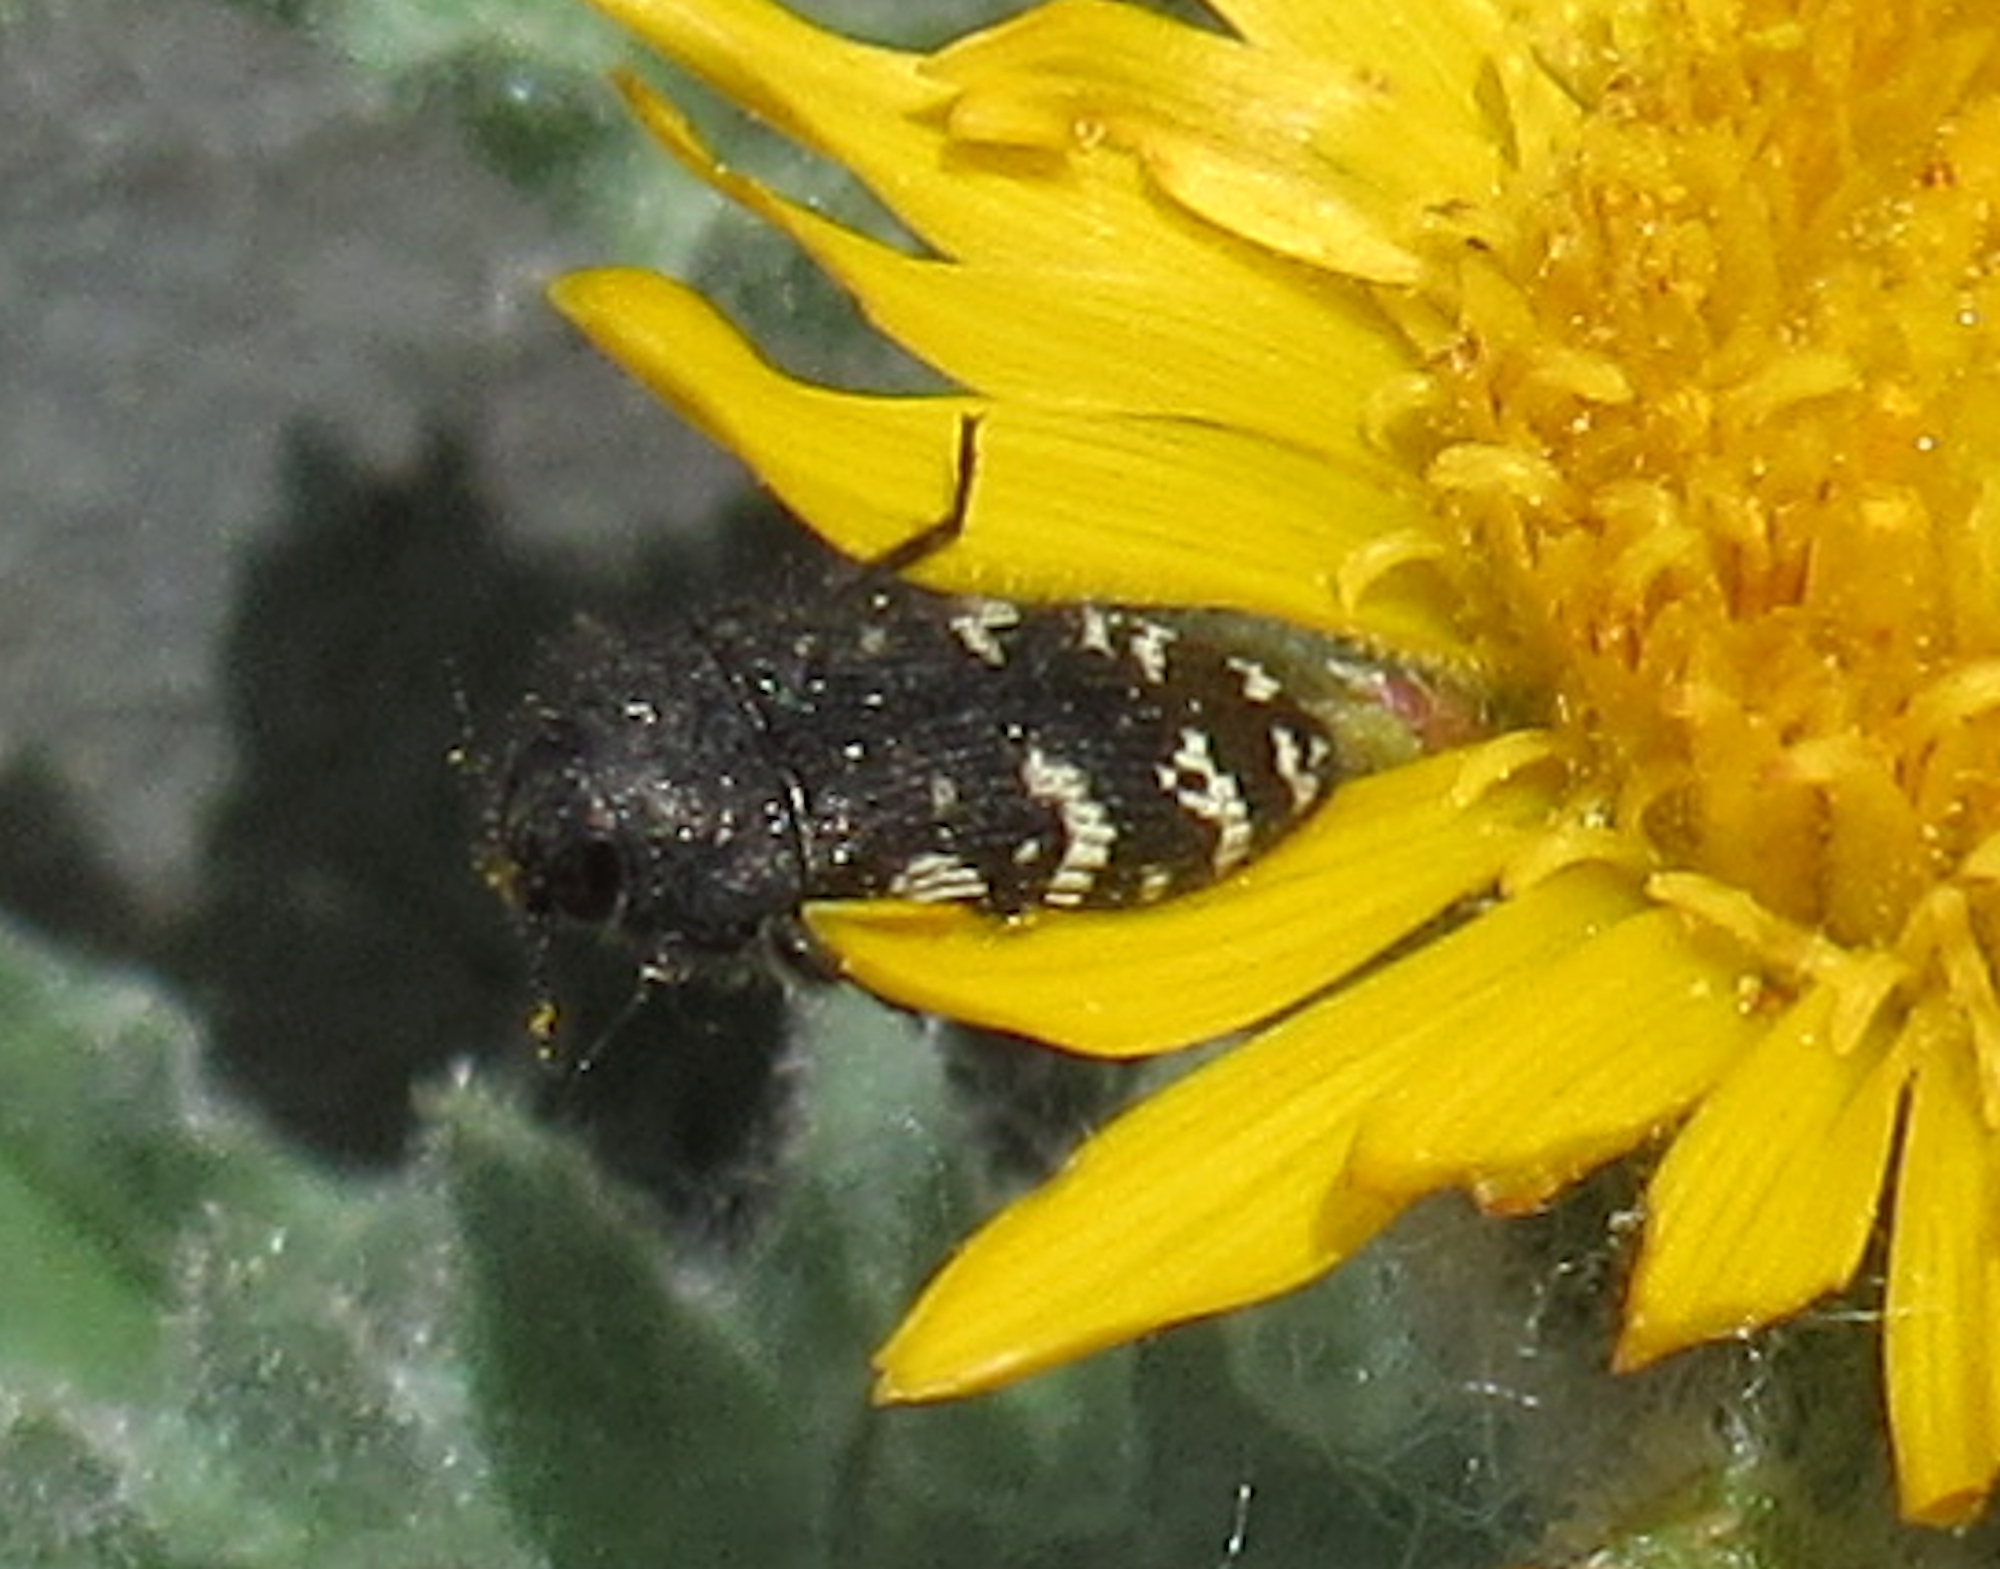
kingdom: Animalia
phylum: Arthropoda
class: Insecta
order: Coleoptera
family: Buprestidae
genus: Acmaeodera
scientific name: Acmaeodera idahoensis
